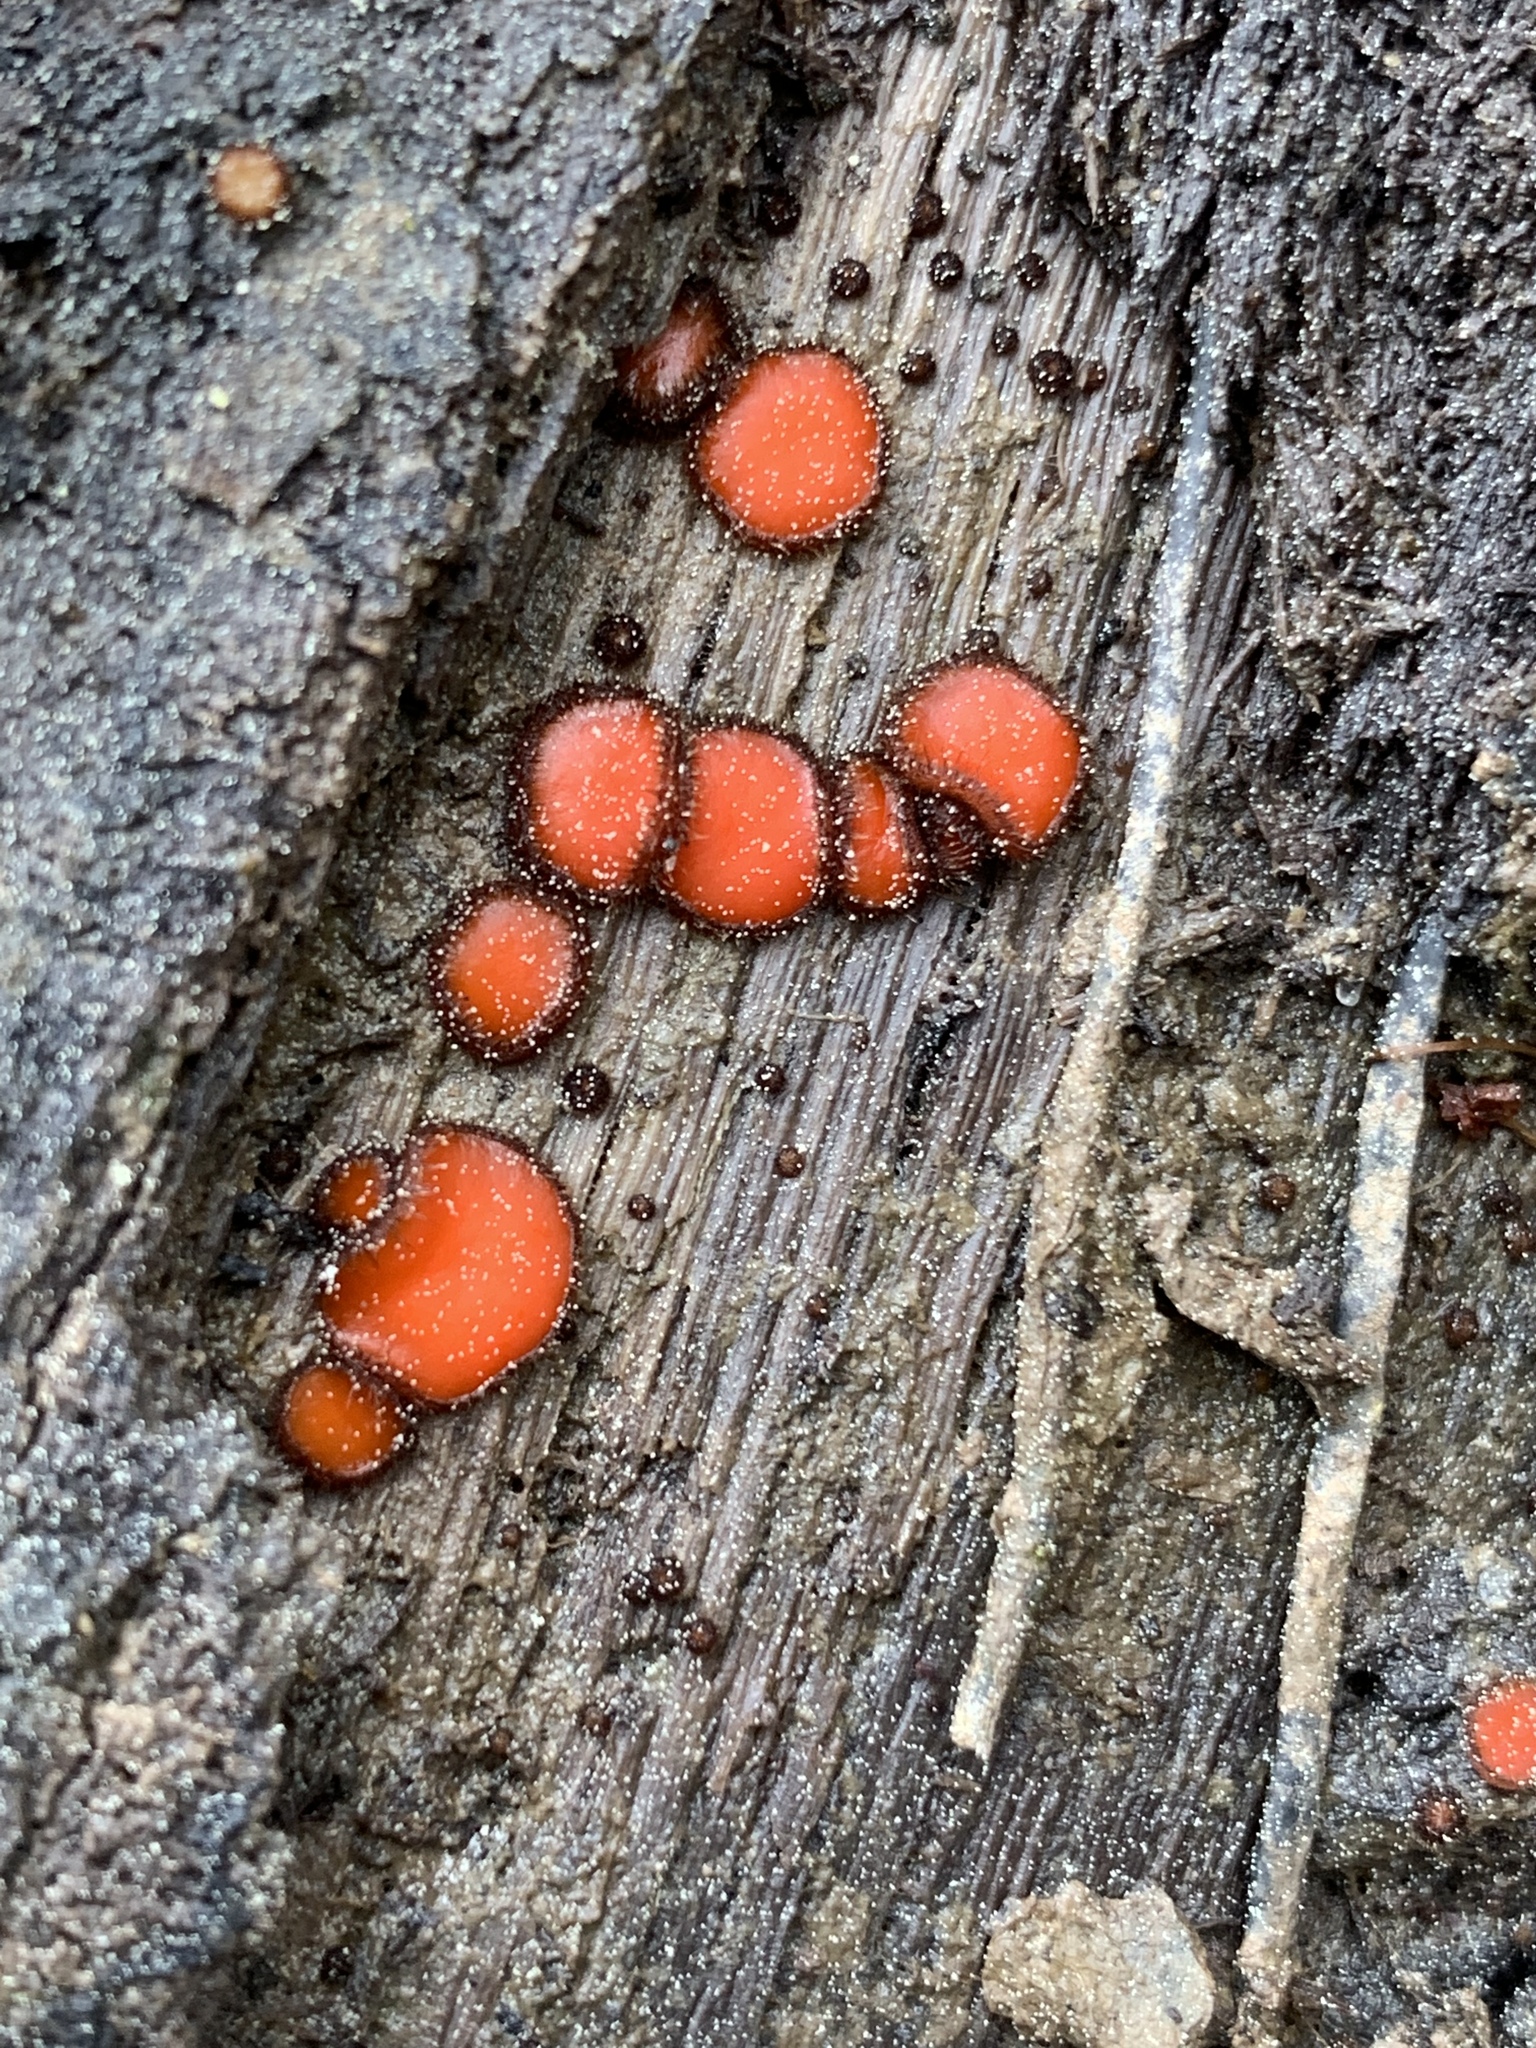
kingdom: Fungi
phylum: Ascomycota
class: Pezizomycetes
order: Pezizales
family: Pyronemataceae
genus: Scutellinia
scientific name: Scutellinia
